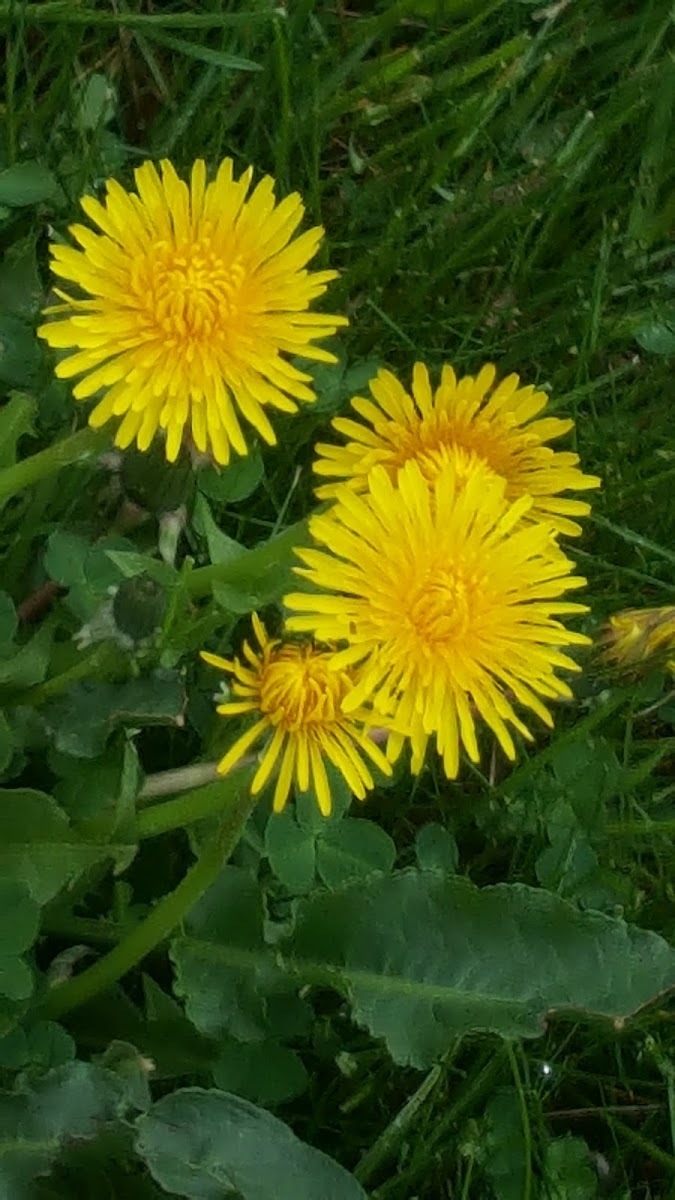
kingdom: Plantae
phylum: Tracheophyta
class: Magnoliopsida
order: Asterales
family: Asteraceae
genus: Taraxacum
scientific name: Taraxacum officinale
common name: Common dandelion
